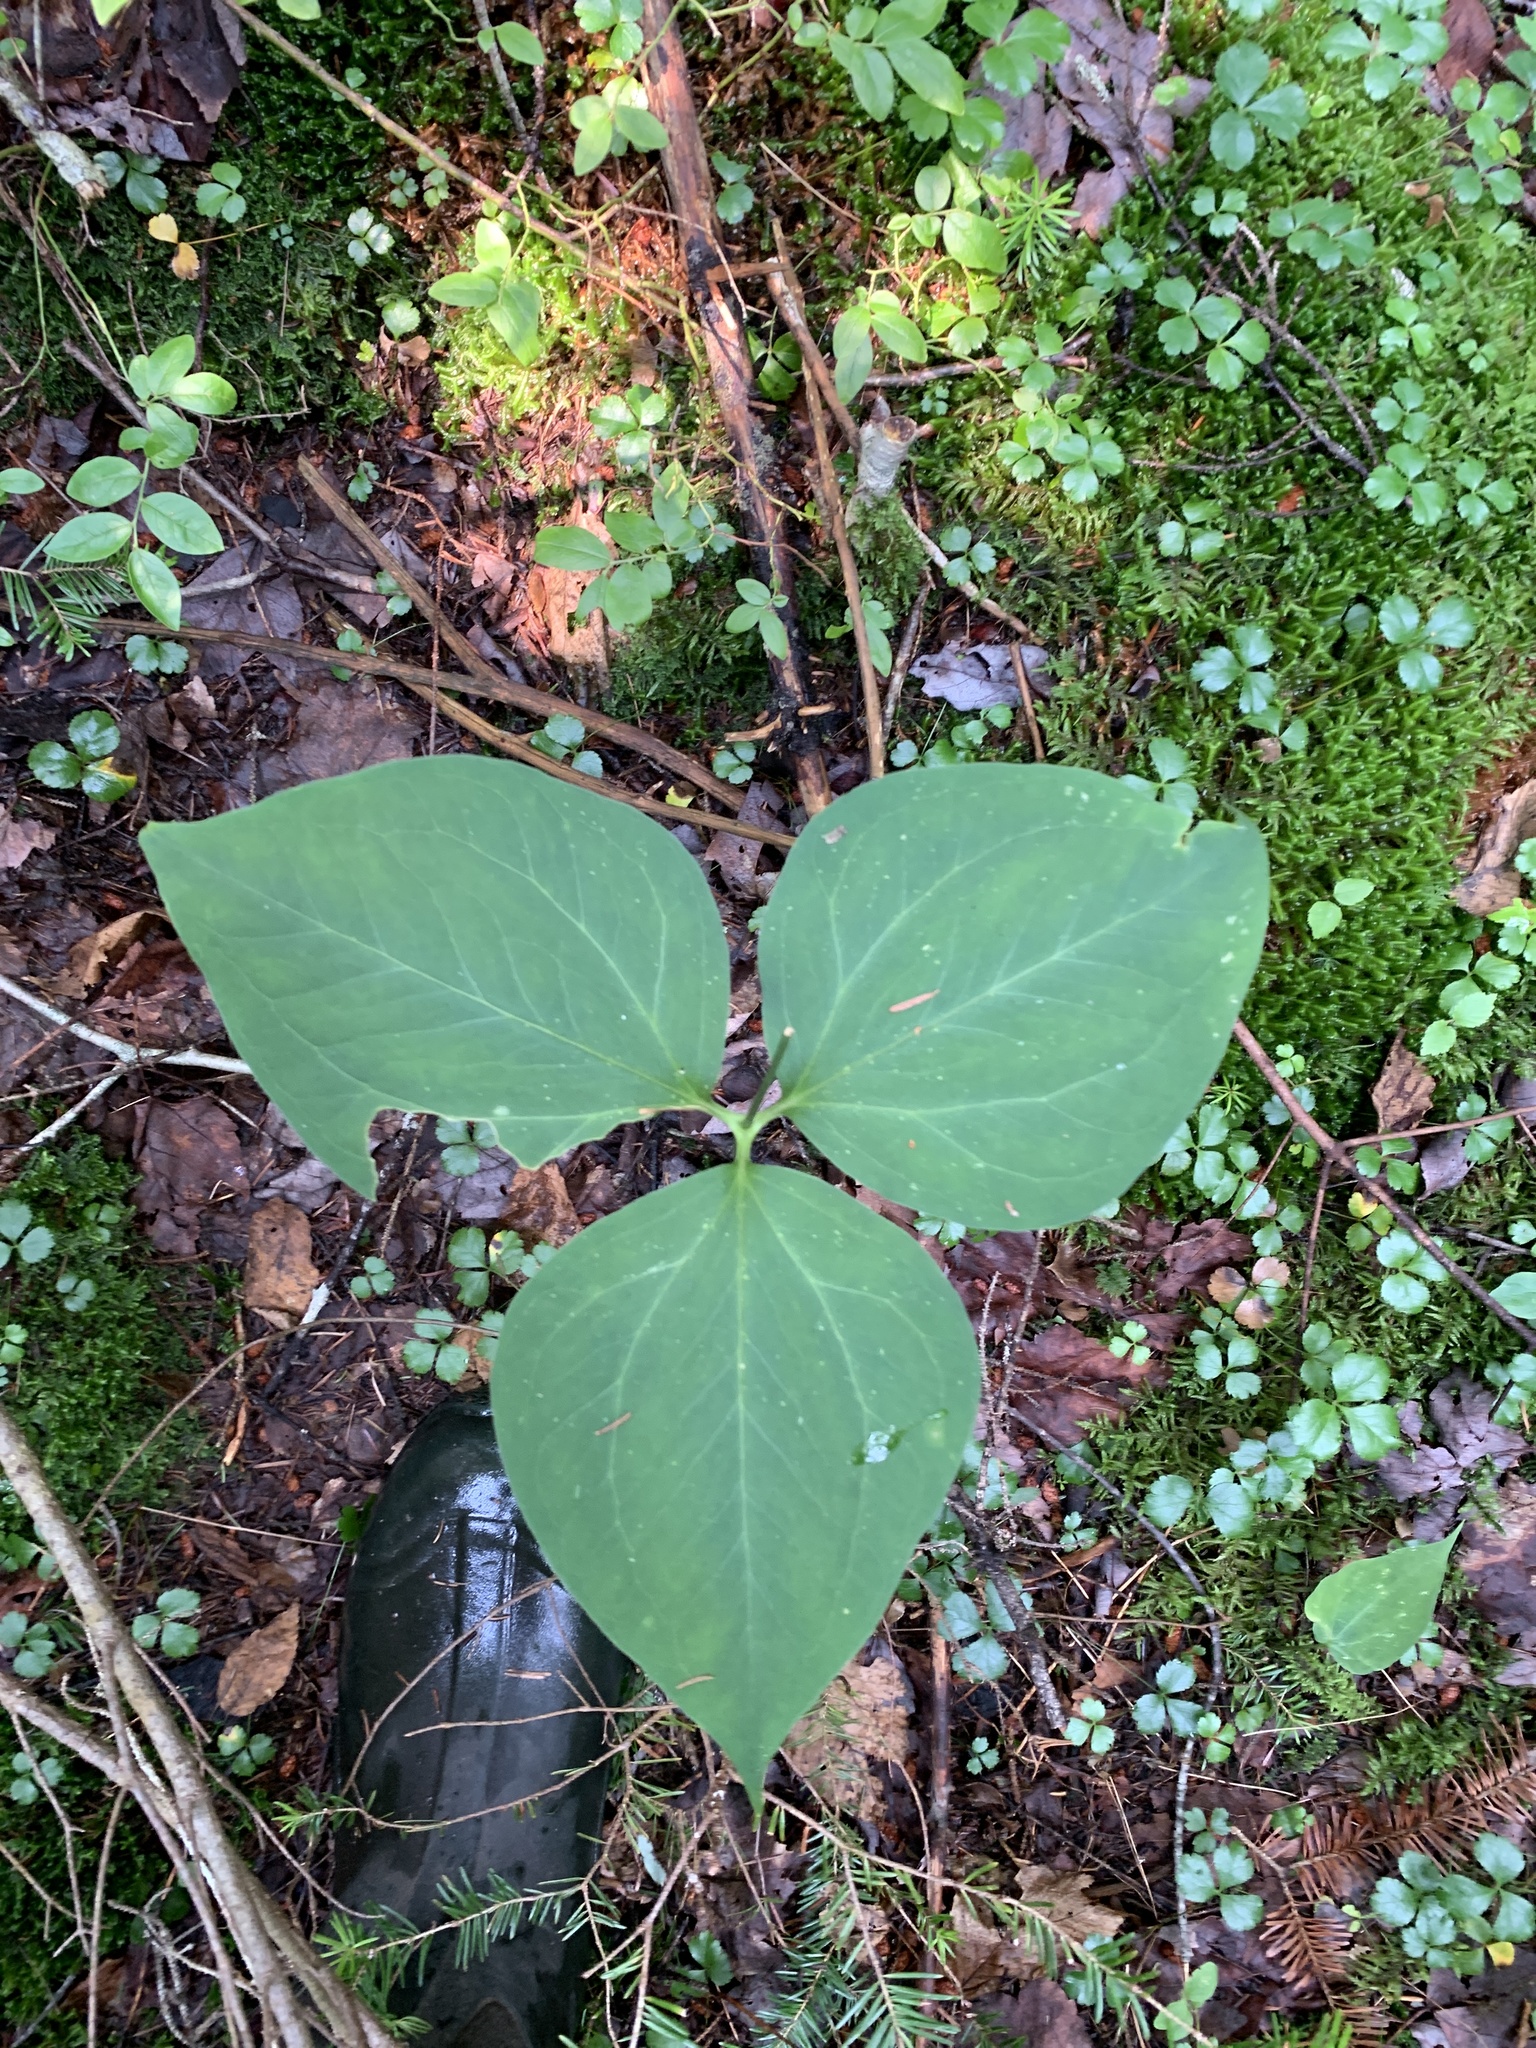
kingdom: Plantae
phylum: Tracheophyta
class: Liliopsida
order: Liliales
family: Melanthiaceae
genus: Trillium
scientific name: Trillium undulatum
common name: Paint trillium
